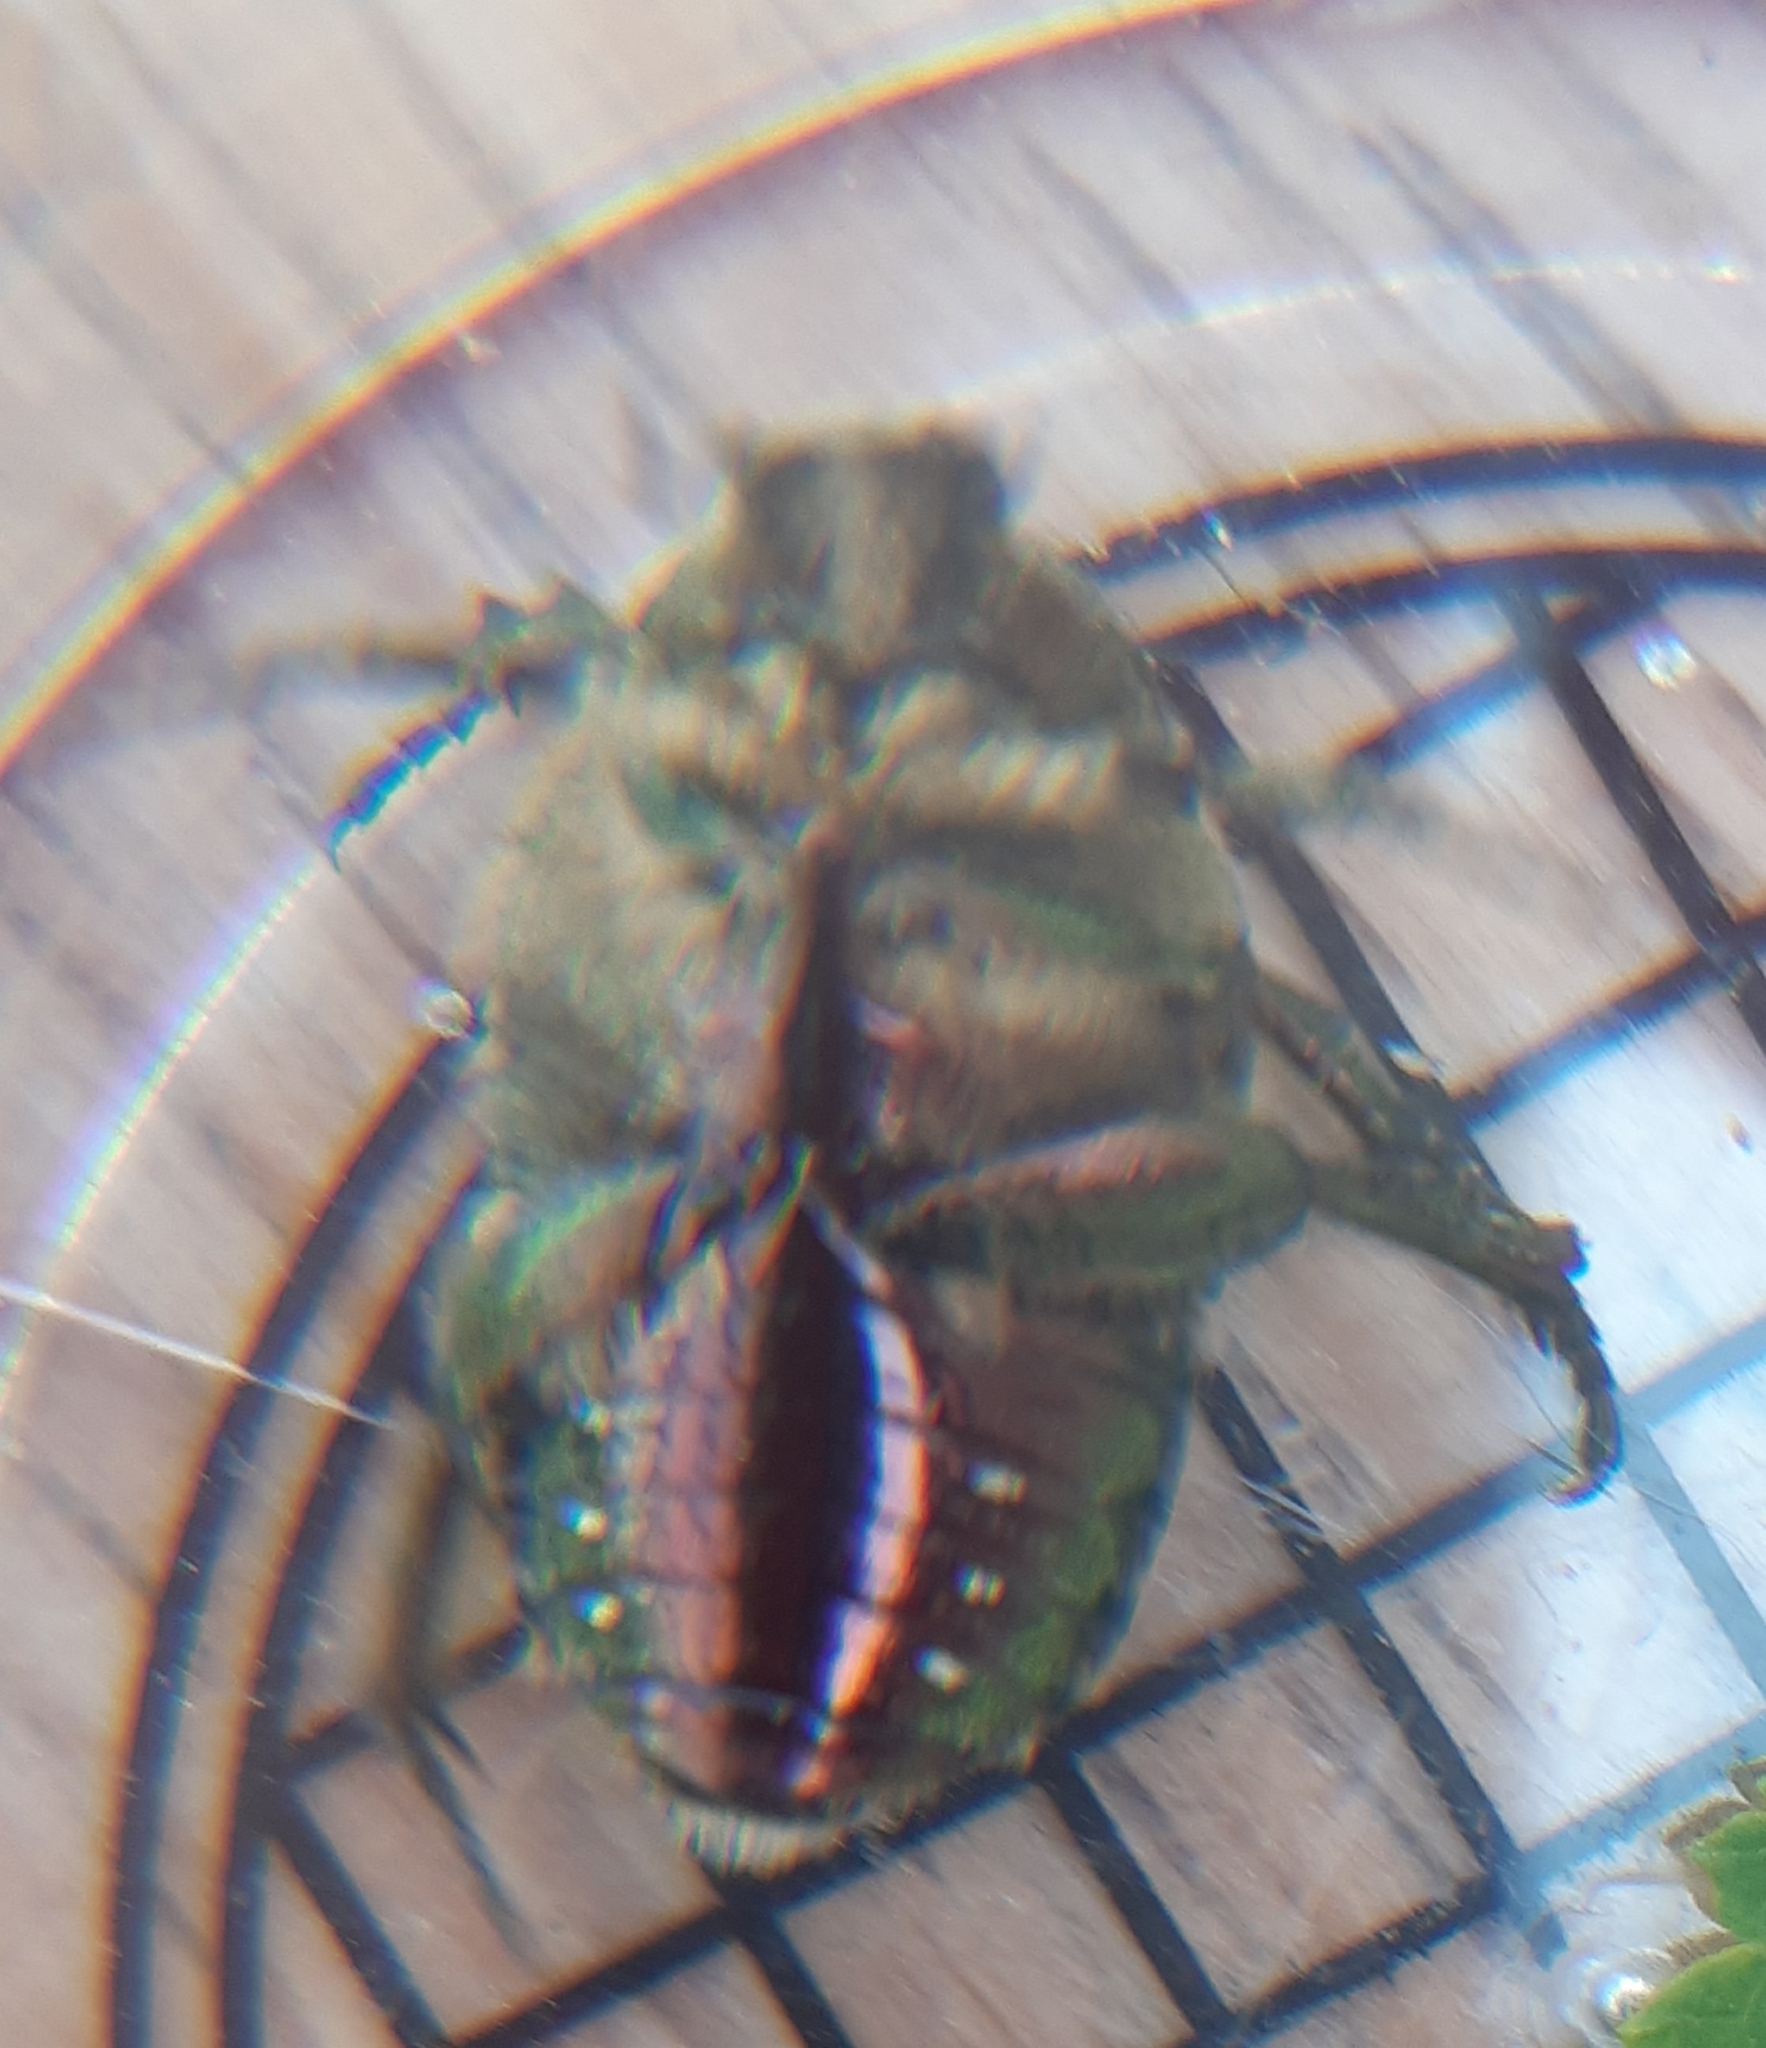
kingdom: Animalia
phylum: Arthropoda
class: Insecta
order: Coleoptera
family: Scarabaeidae
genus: Cetonia
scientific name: Cetonia aurata
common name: Rose chafer
